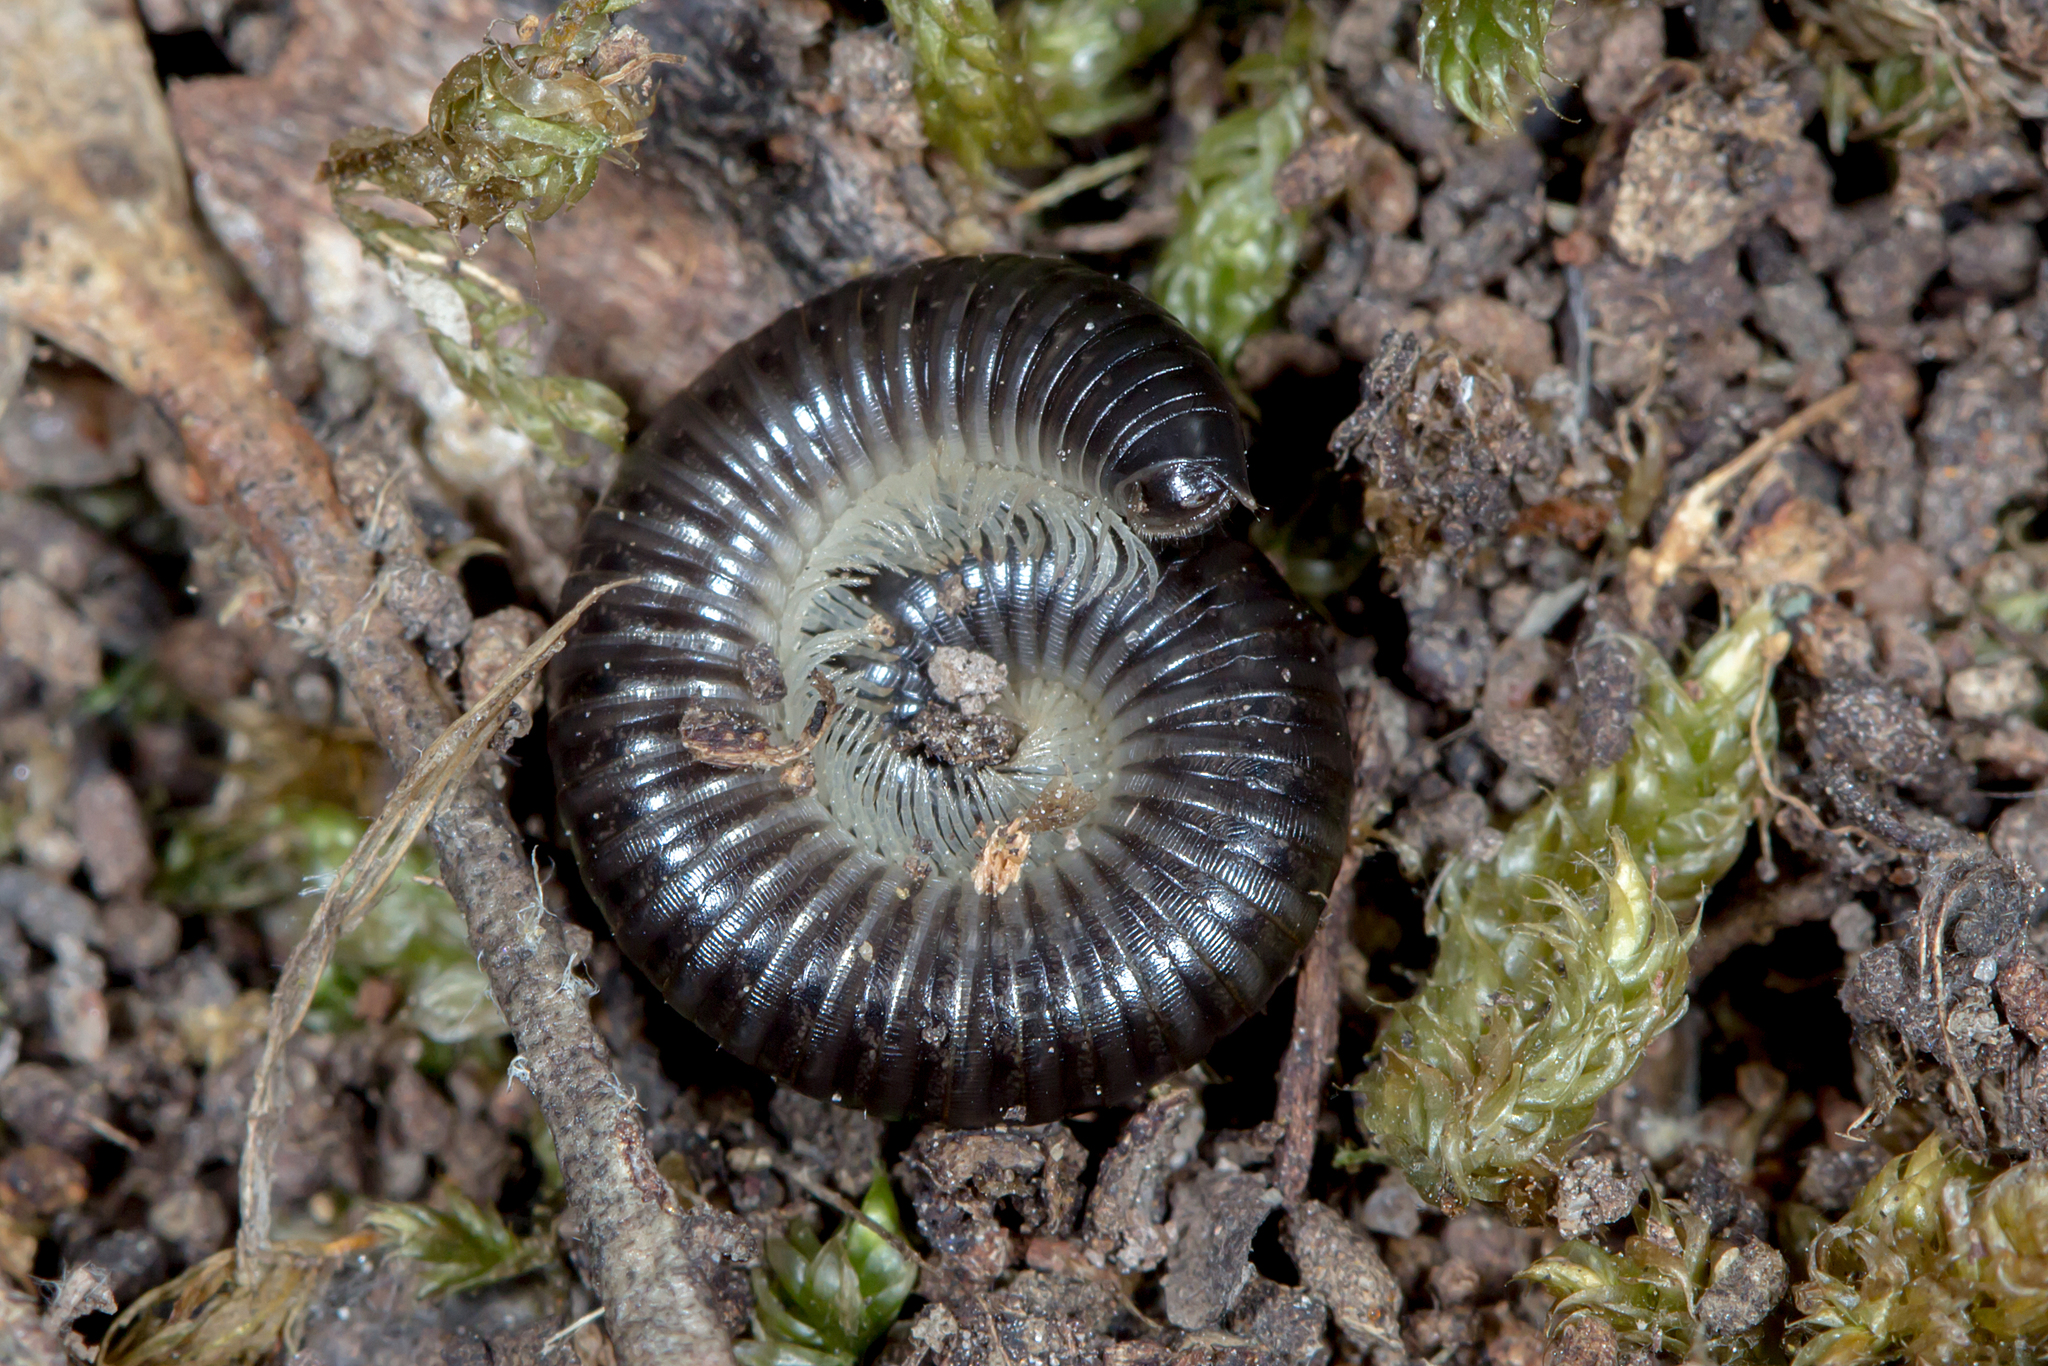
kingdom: Animalia
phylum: Arthropoda
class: Diplopoda
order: Julida
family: Julidae
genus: Ommatoiulus
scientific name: Ommatoiulus moreleti
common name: Portuguese millipede
